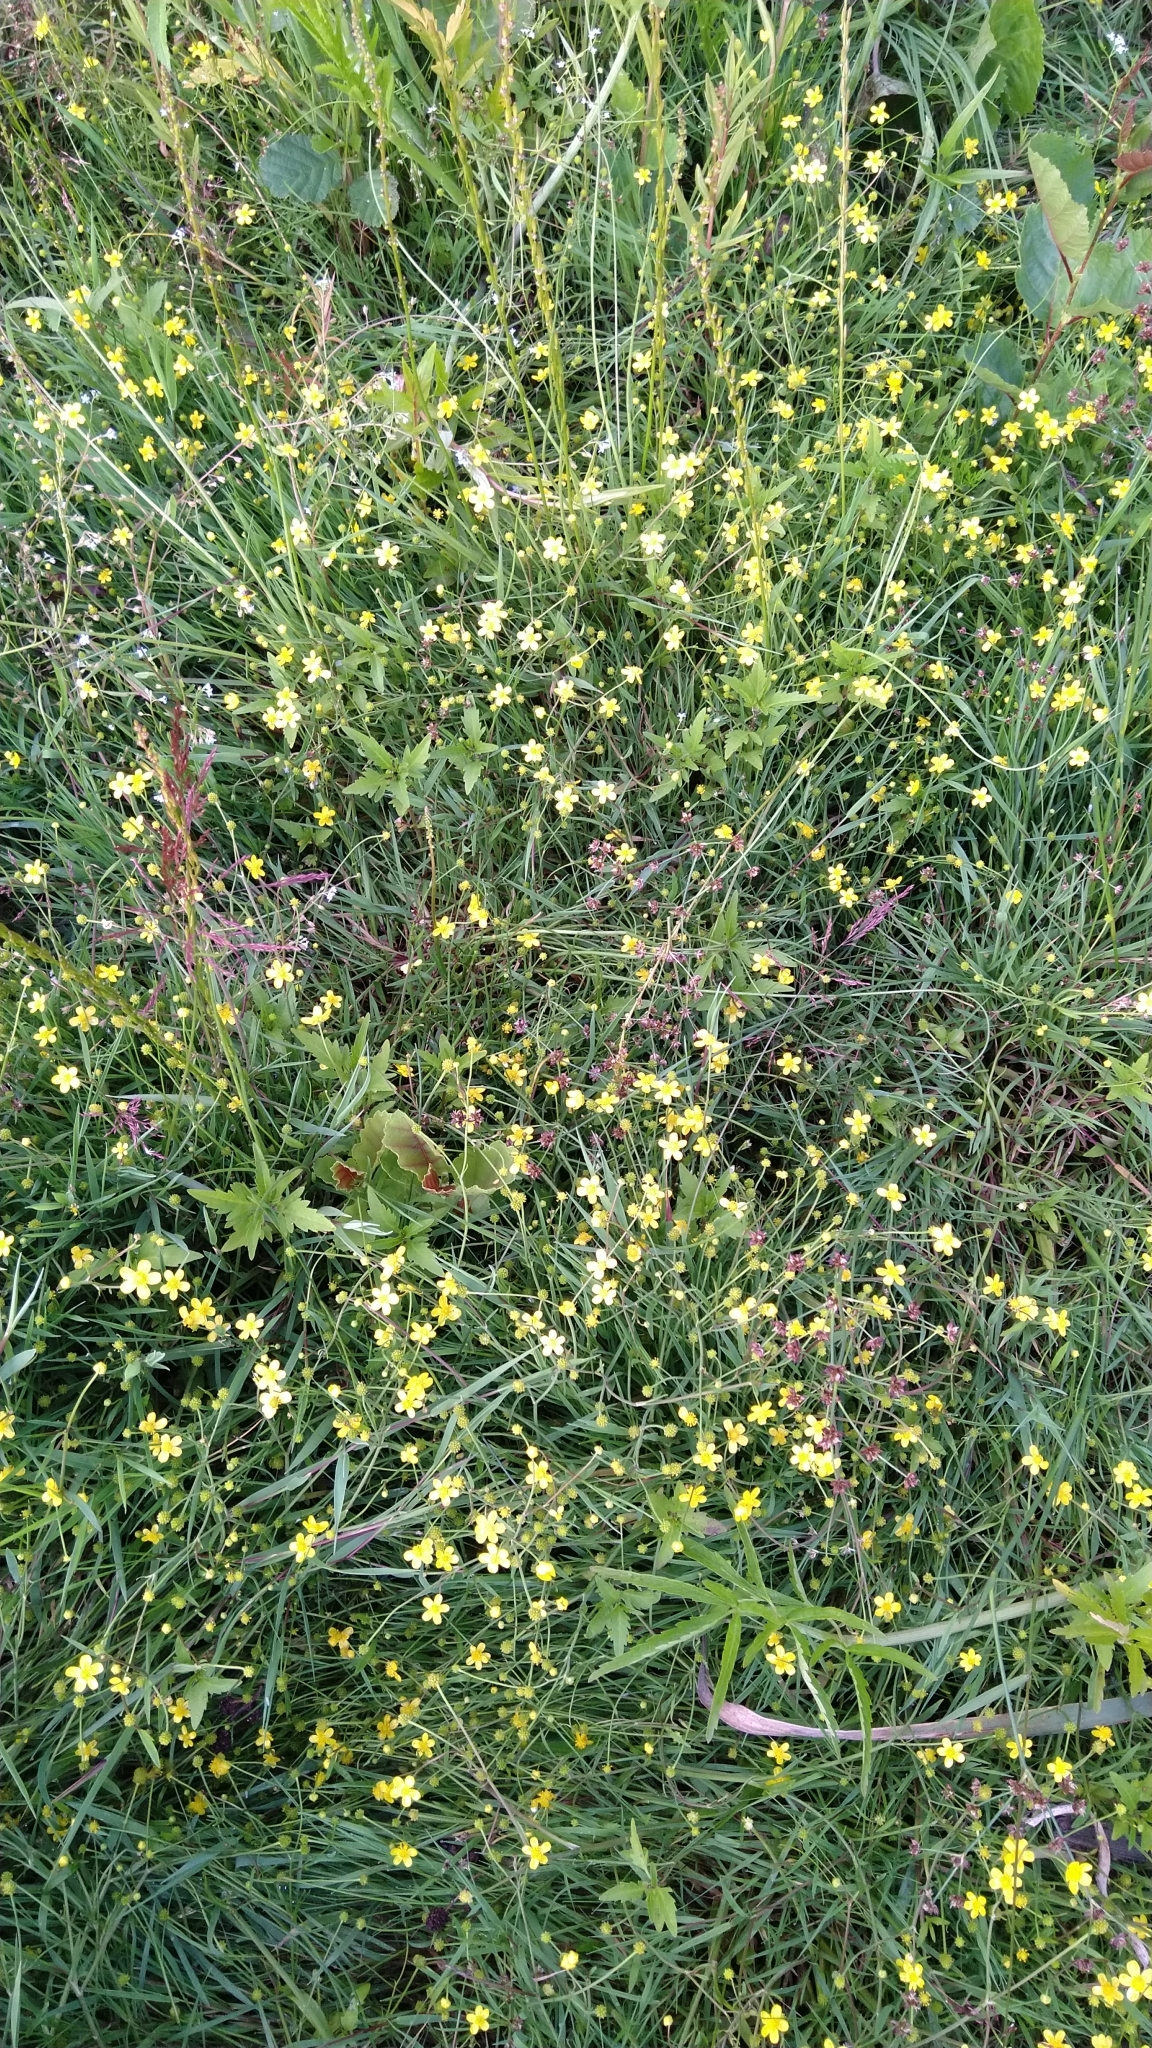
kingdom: Plantae
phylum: Tracheophyta
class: Magnoliopsida
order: Ranunculales
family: Ranunculaceae
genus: Ranunculus
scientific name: Ranunculus flammula
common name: Lesser spearwort
